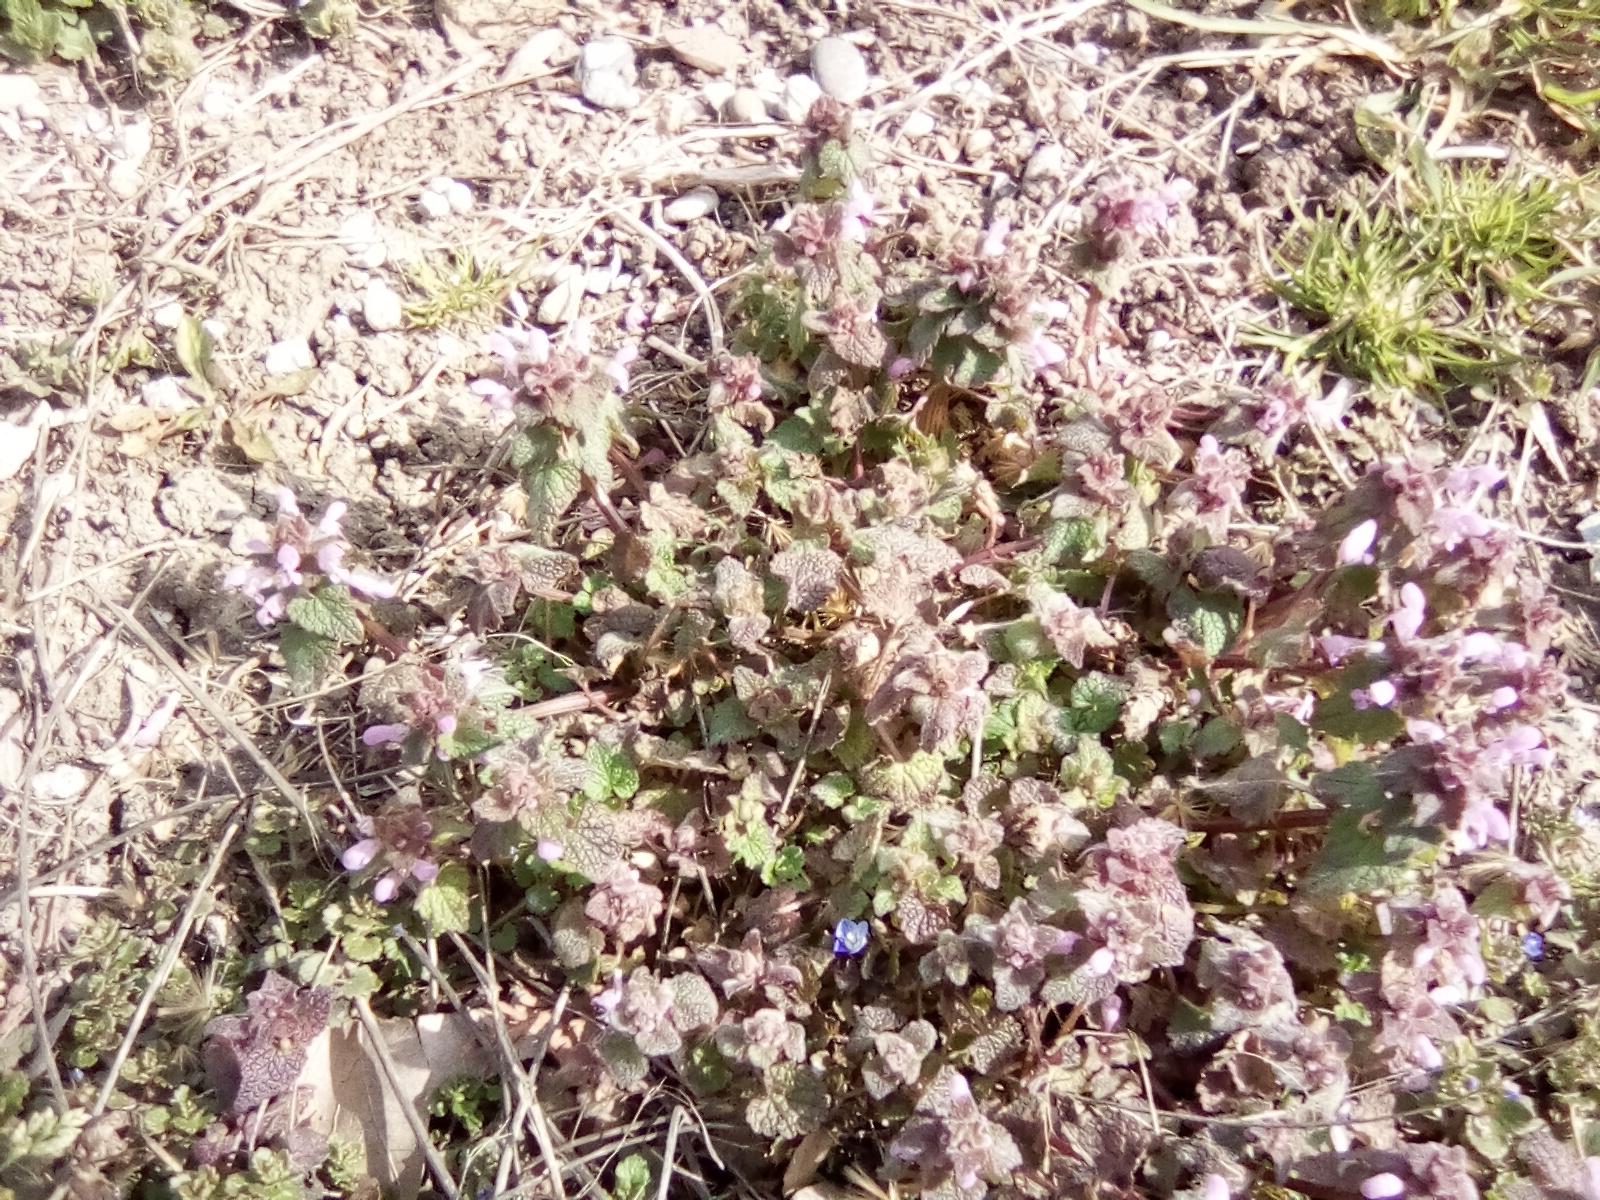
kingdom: Plantae
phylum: Tracheophyta
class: Magnoliopsida
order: Lamiales
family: Lamiaceae
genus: Lamium
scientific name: Lamium purpureum
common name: Red dead-nettle
